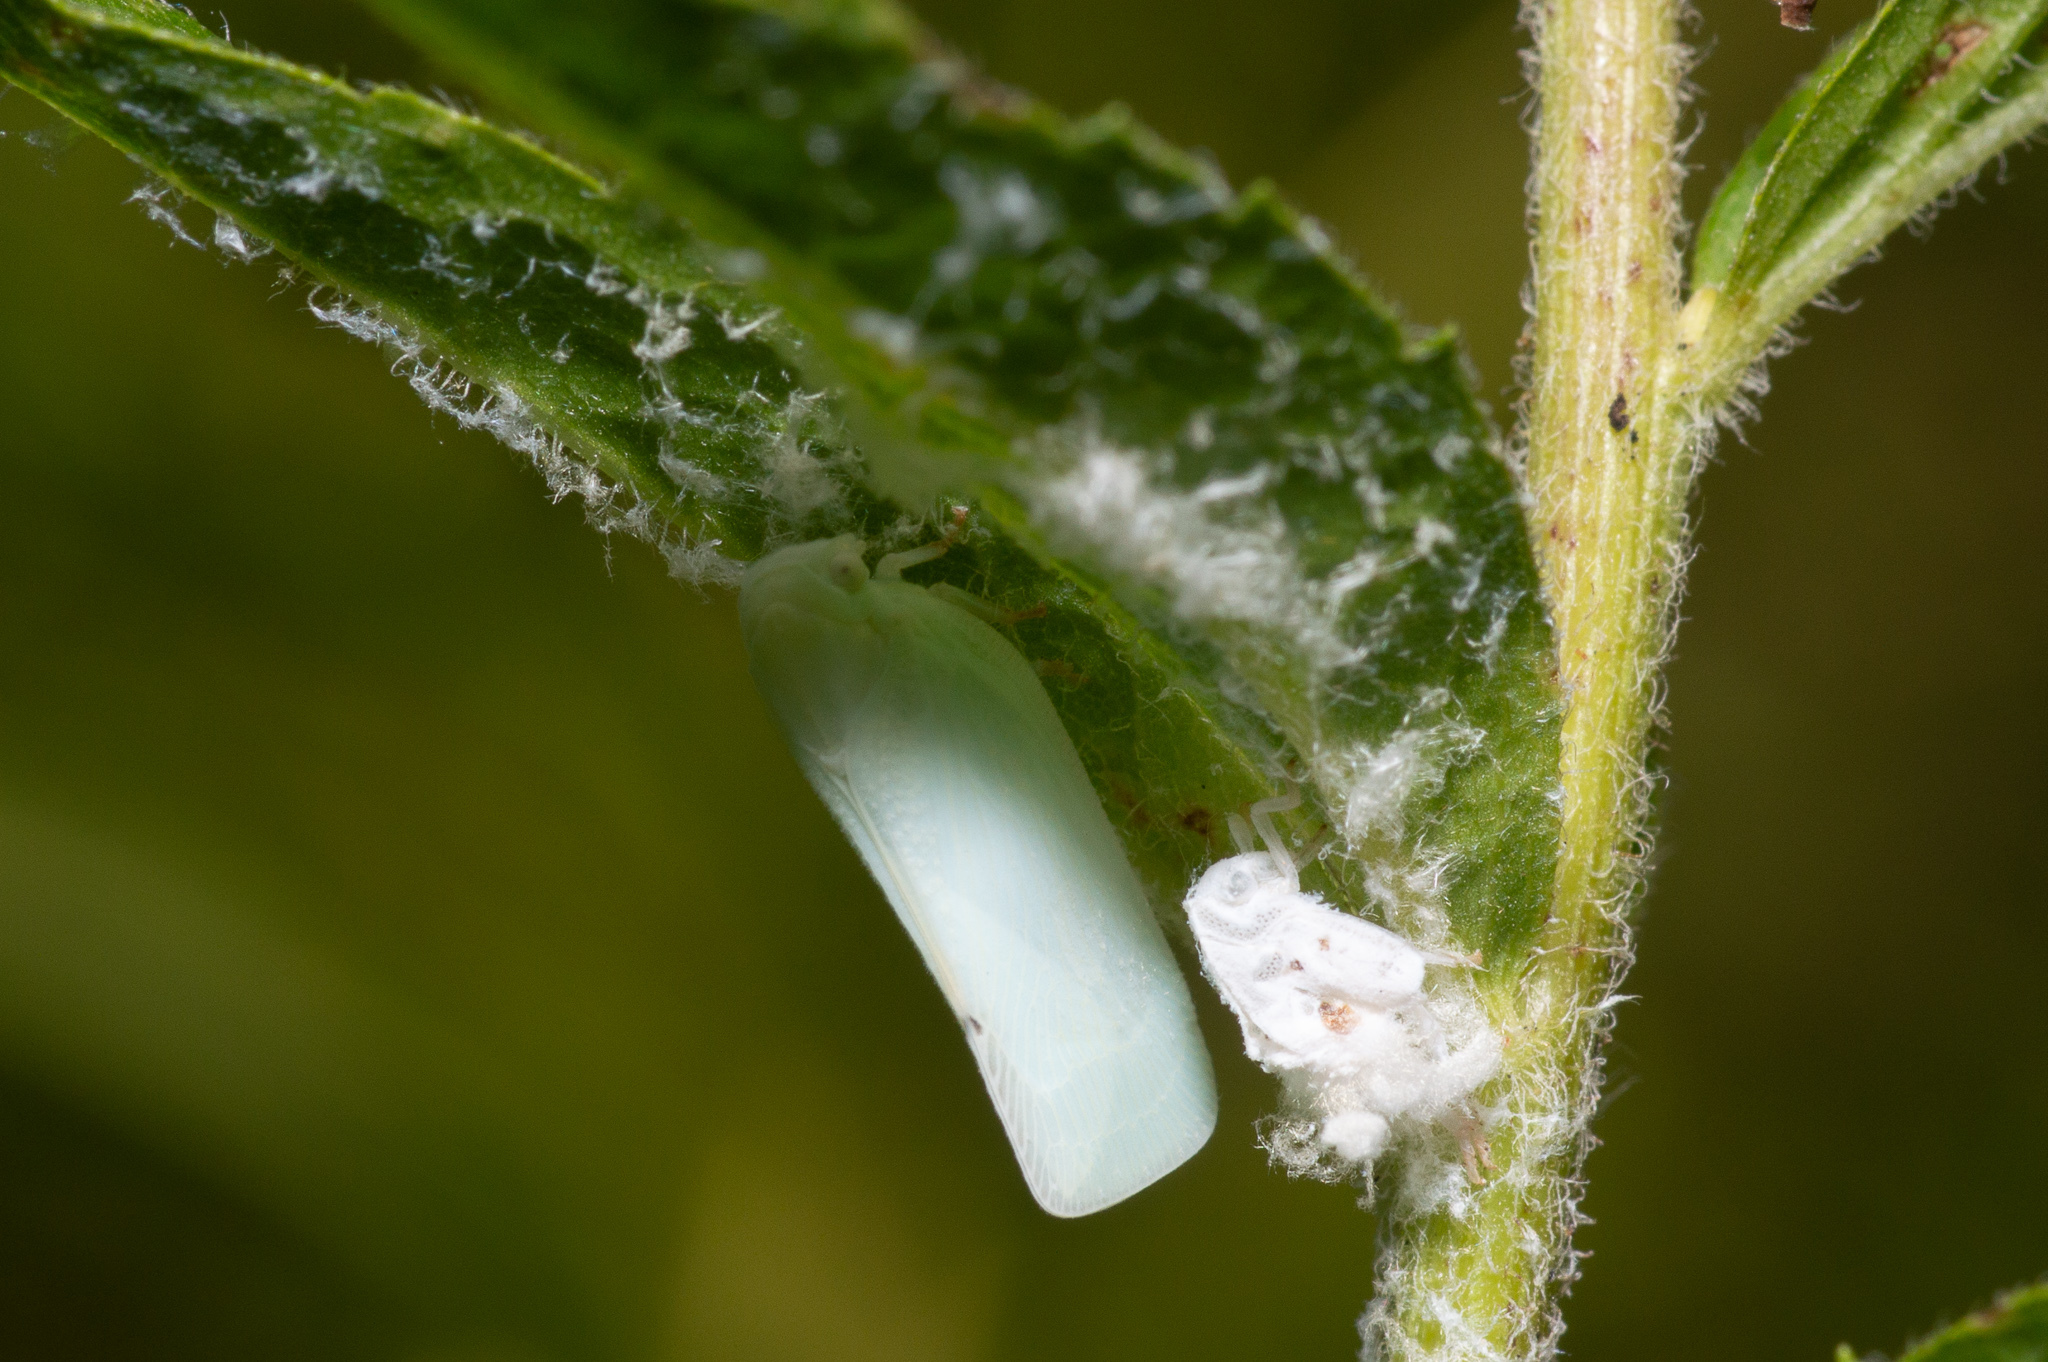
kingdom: Animalia
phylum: Arthropoda
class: Insecta
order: Hemiptera
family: Flatidae
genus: Flatormenis
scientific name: Flatormenis proxima
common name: Northern flatid planthopper
